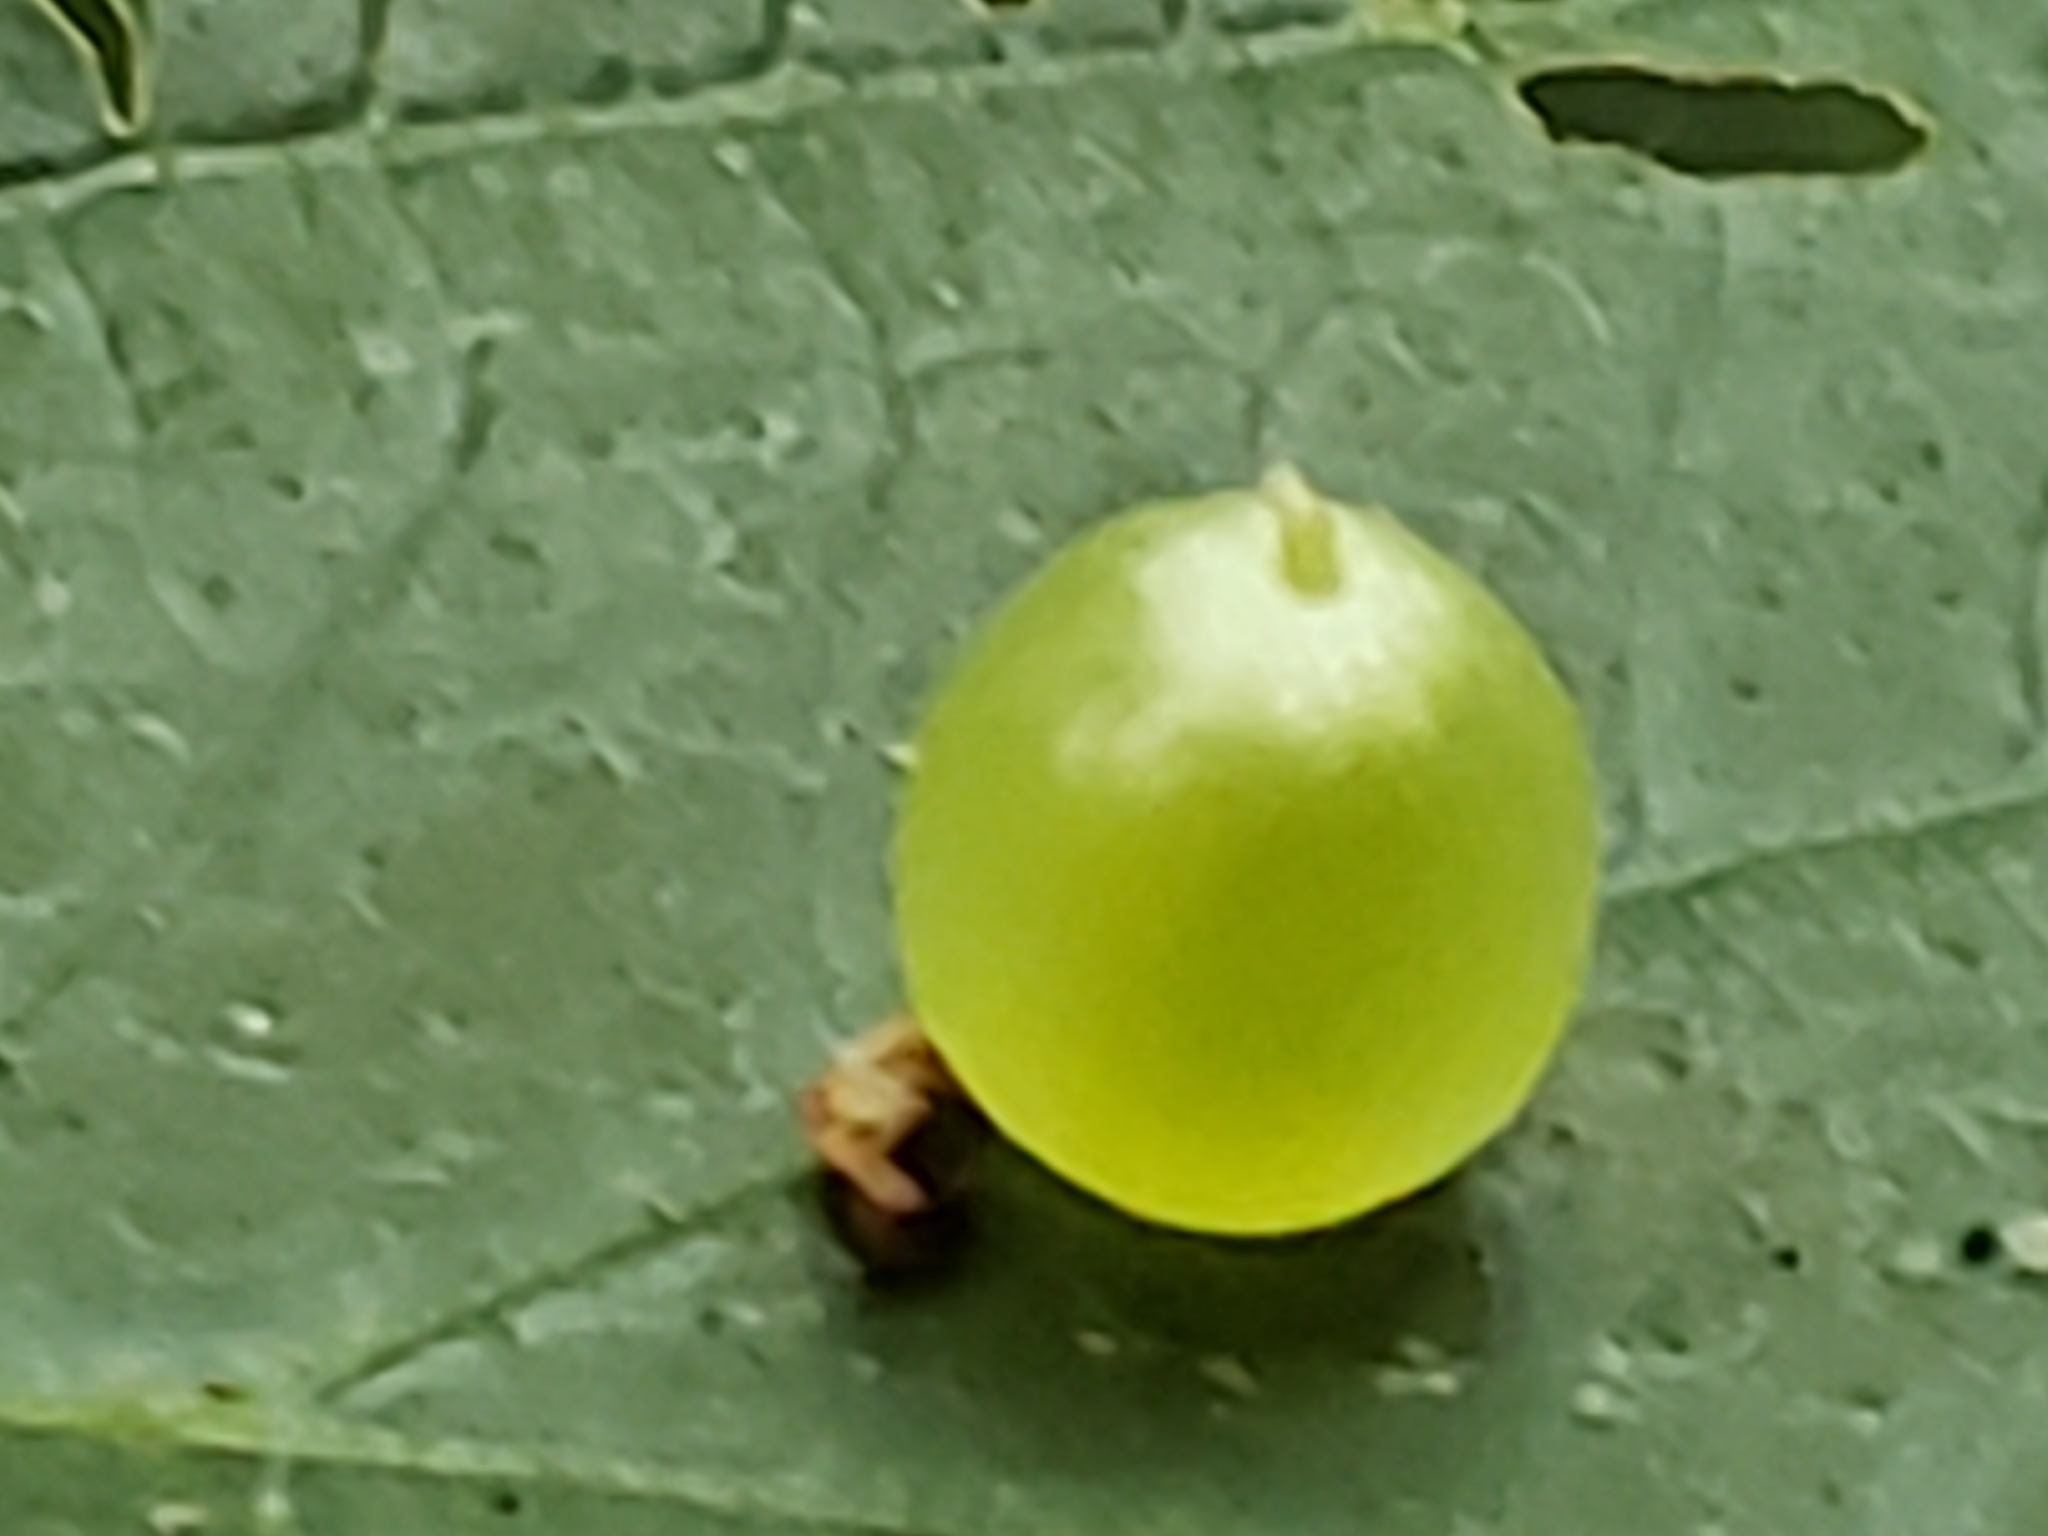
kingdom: Animalia
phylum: Arthropoda
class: Insecta
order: Diptera
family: Cecidomyiidae
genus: Dasineura
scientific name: Dasineura investita
